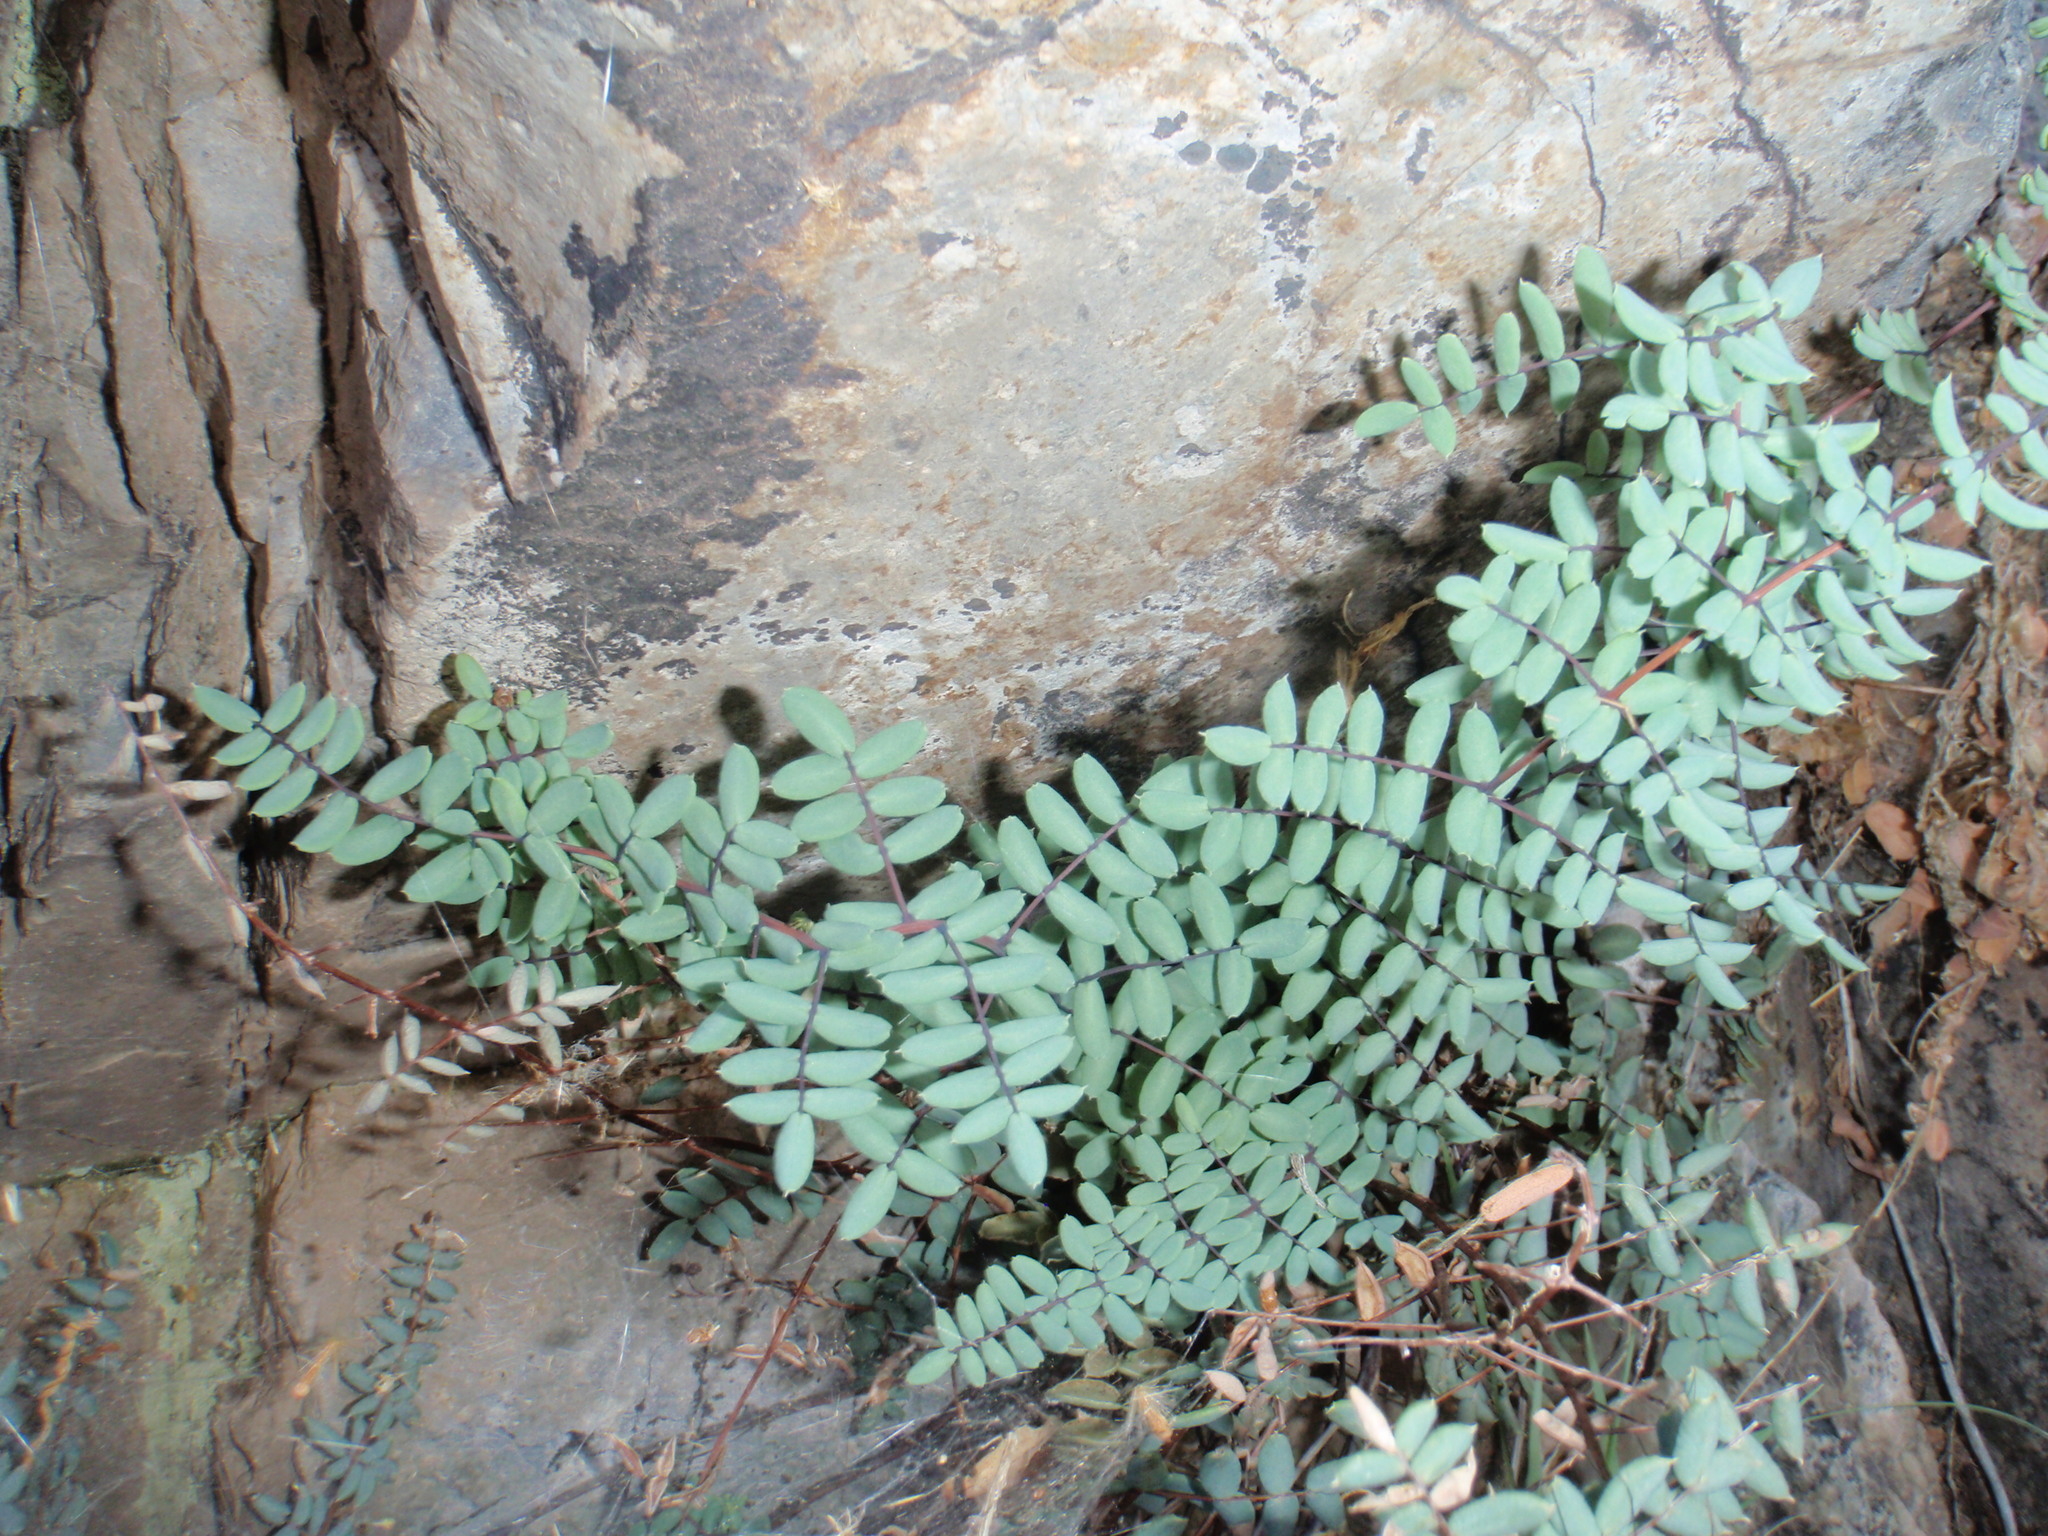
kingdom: Plantae
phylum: Tracheophyta
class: Polypodiopsida
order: Polypodiales
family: Pteridaceae
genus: Pellaea
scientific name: Pellaea truncata
